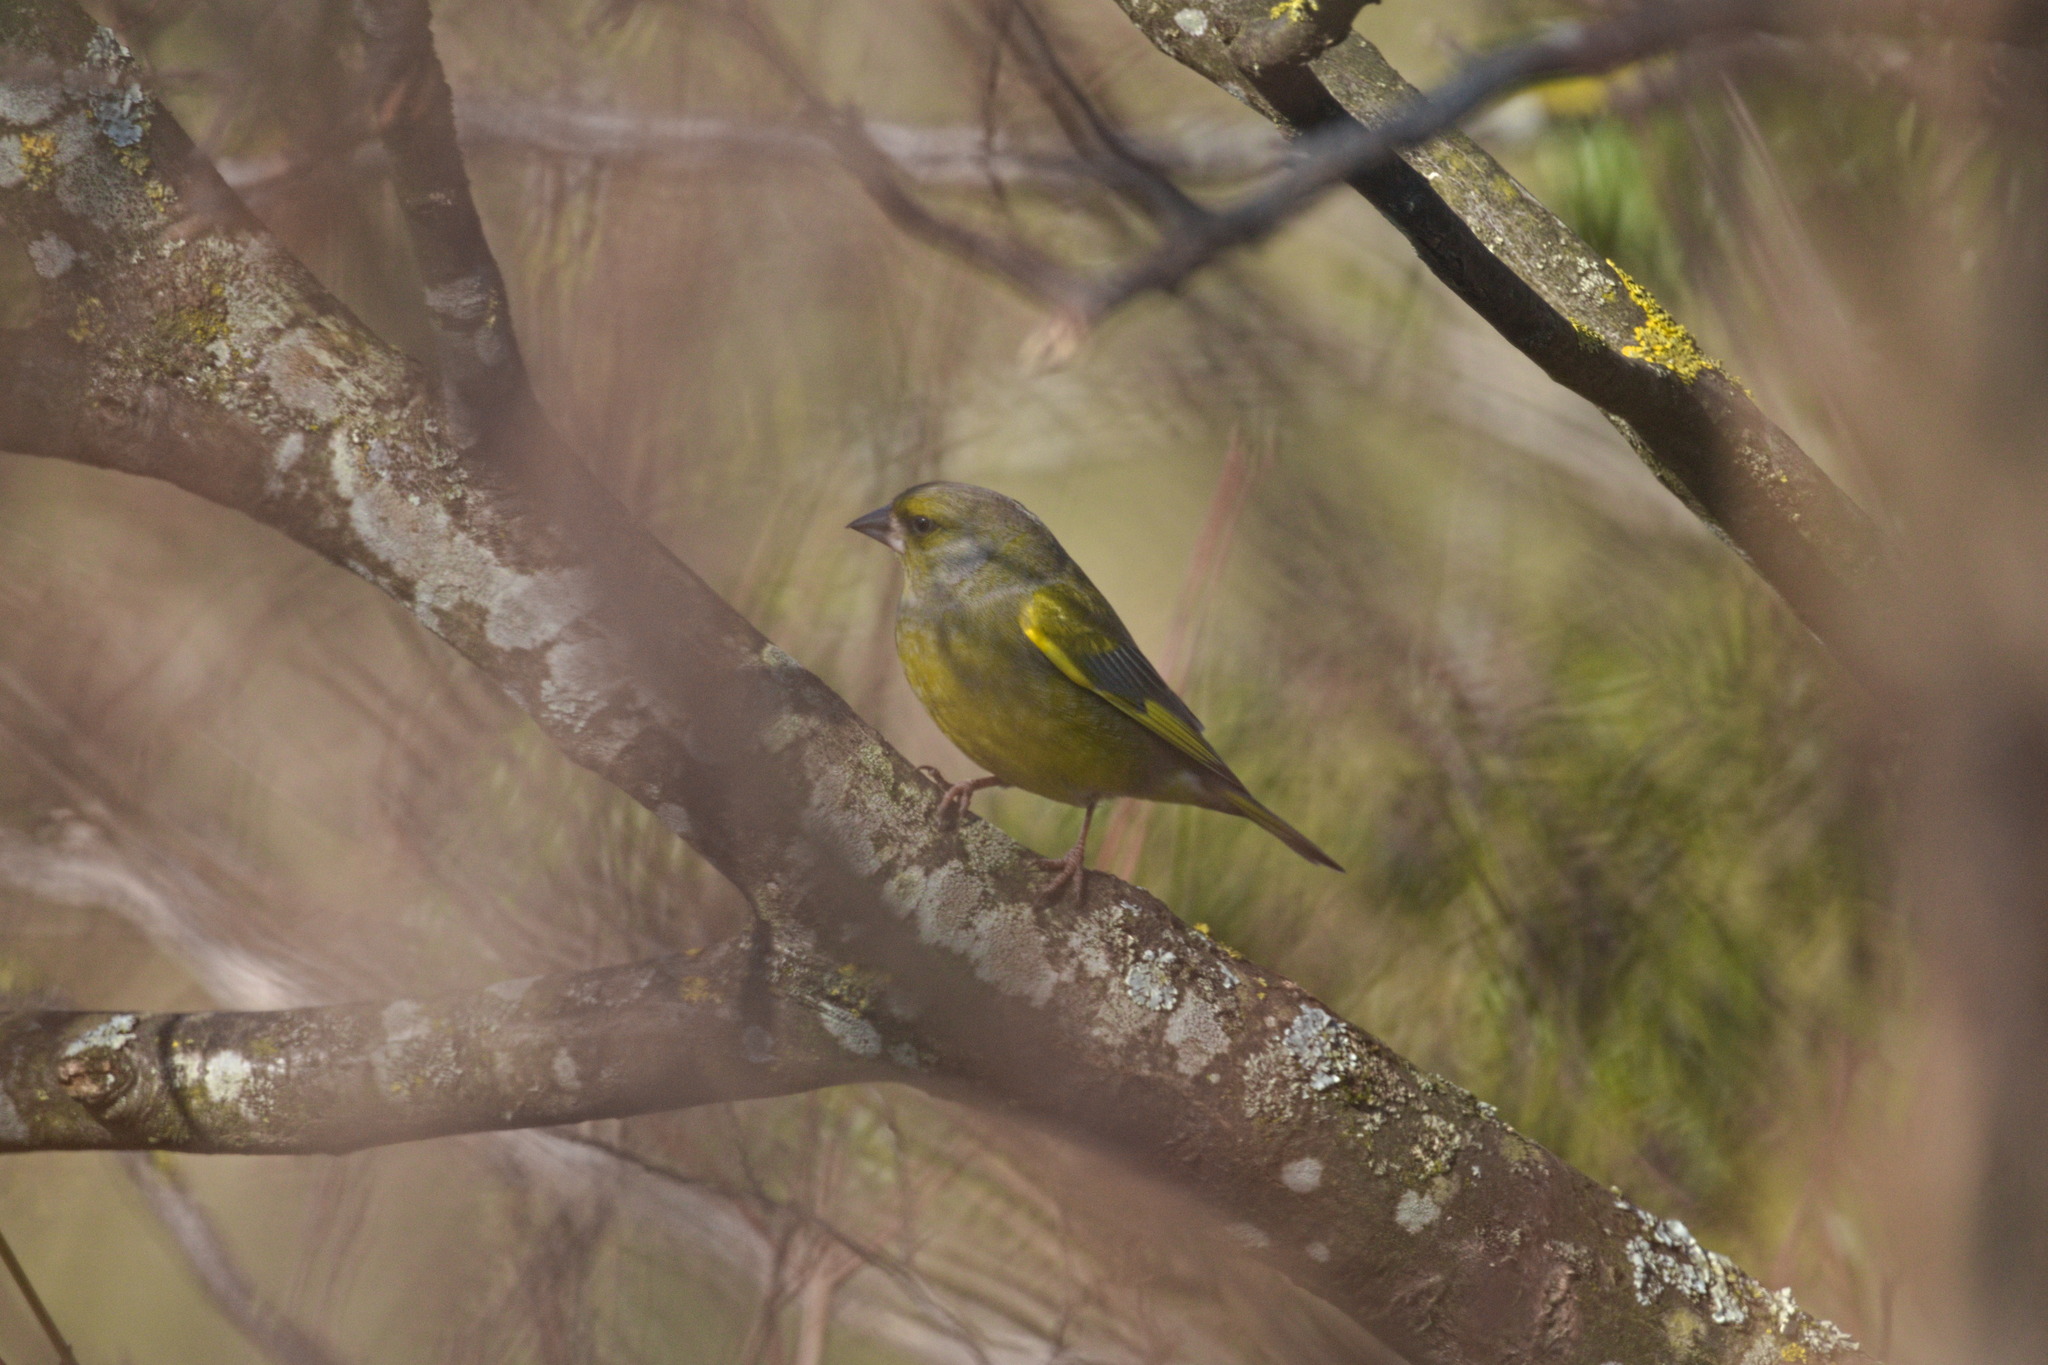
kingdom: Plantae
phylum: Tracheophyta
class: Liliopsida
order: Poales
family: Poaceae
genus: Chloris
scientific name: Chloris chloris
